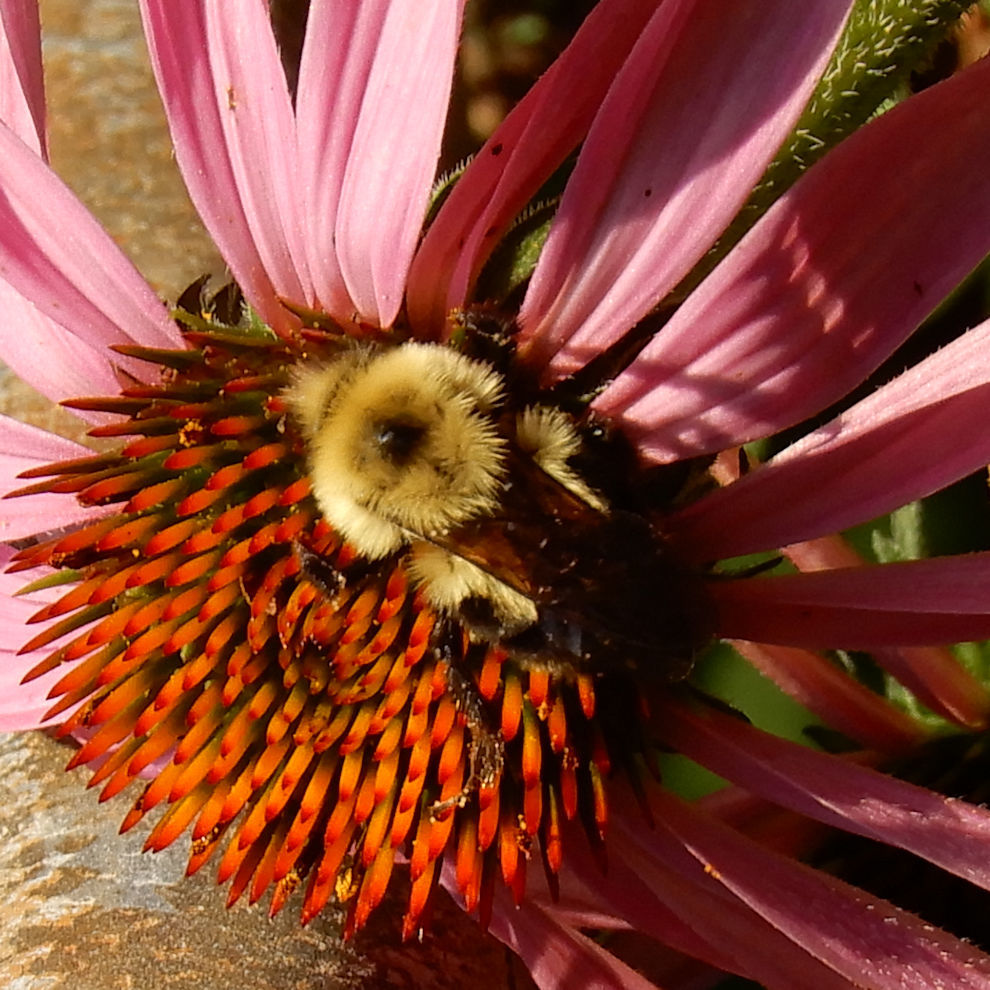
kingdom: Animalia
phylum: Arthropoda
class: Insecta
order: Hymenoptera
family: Apidae
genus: Bombus
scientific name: Bombus bimaculatus
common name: Two-spotted bumble bee
